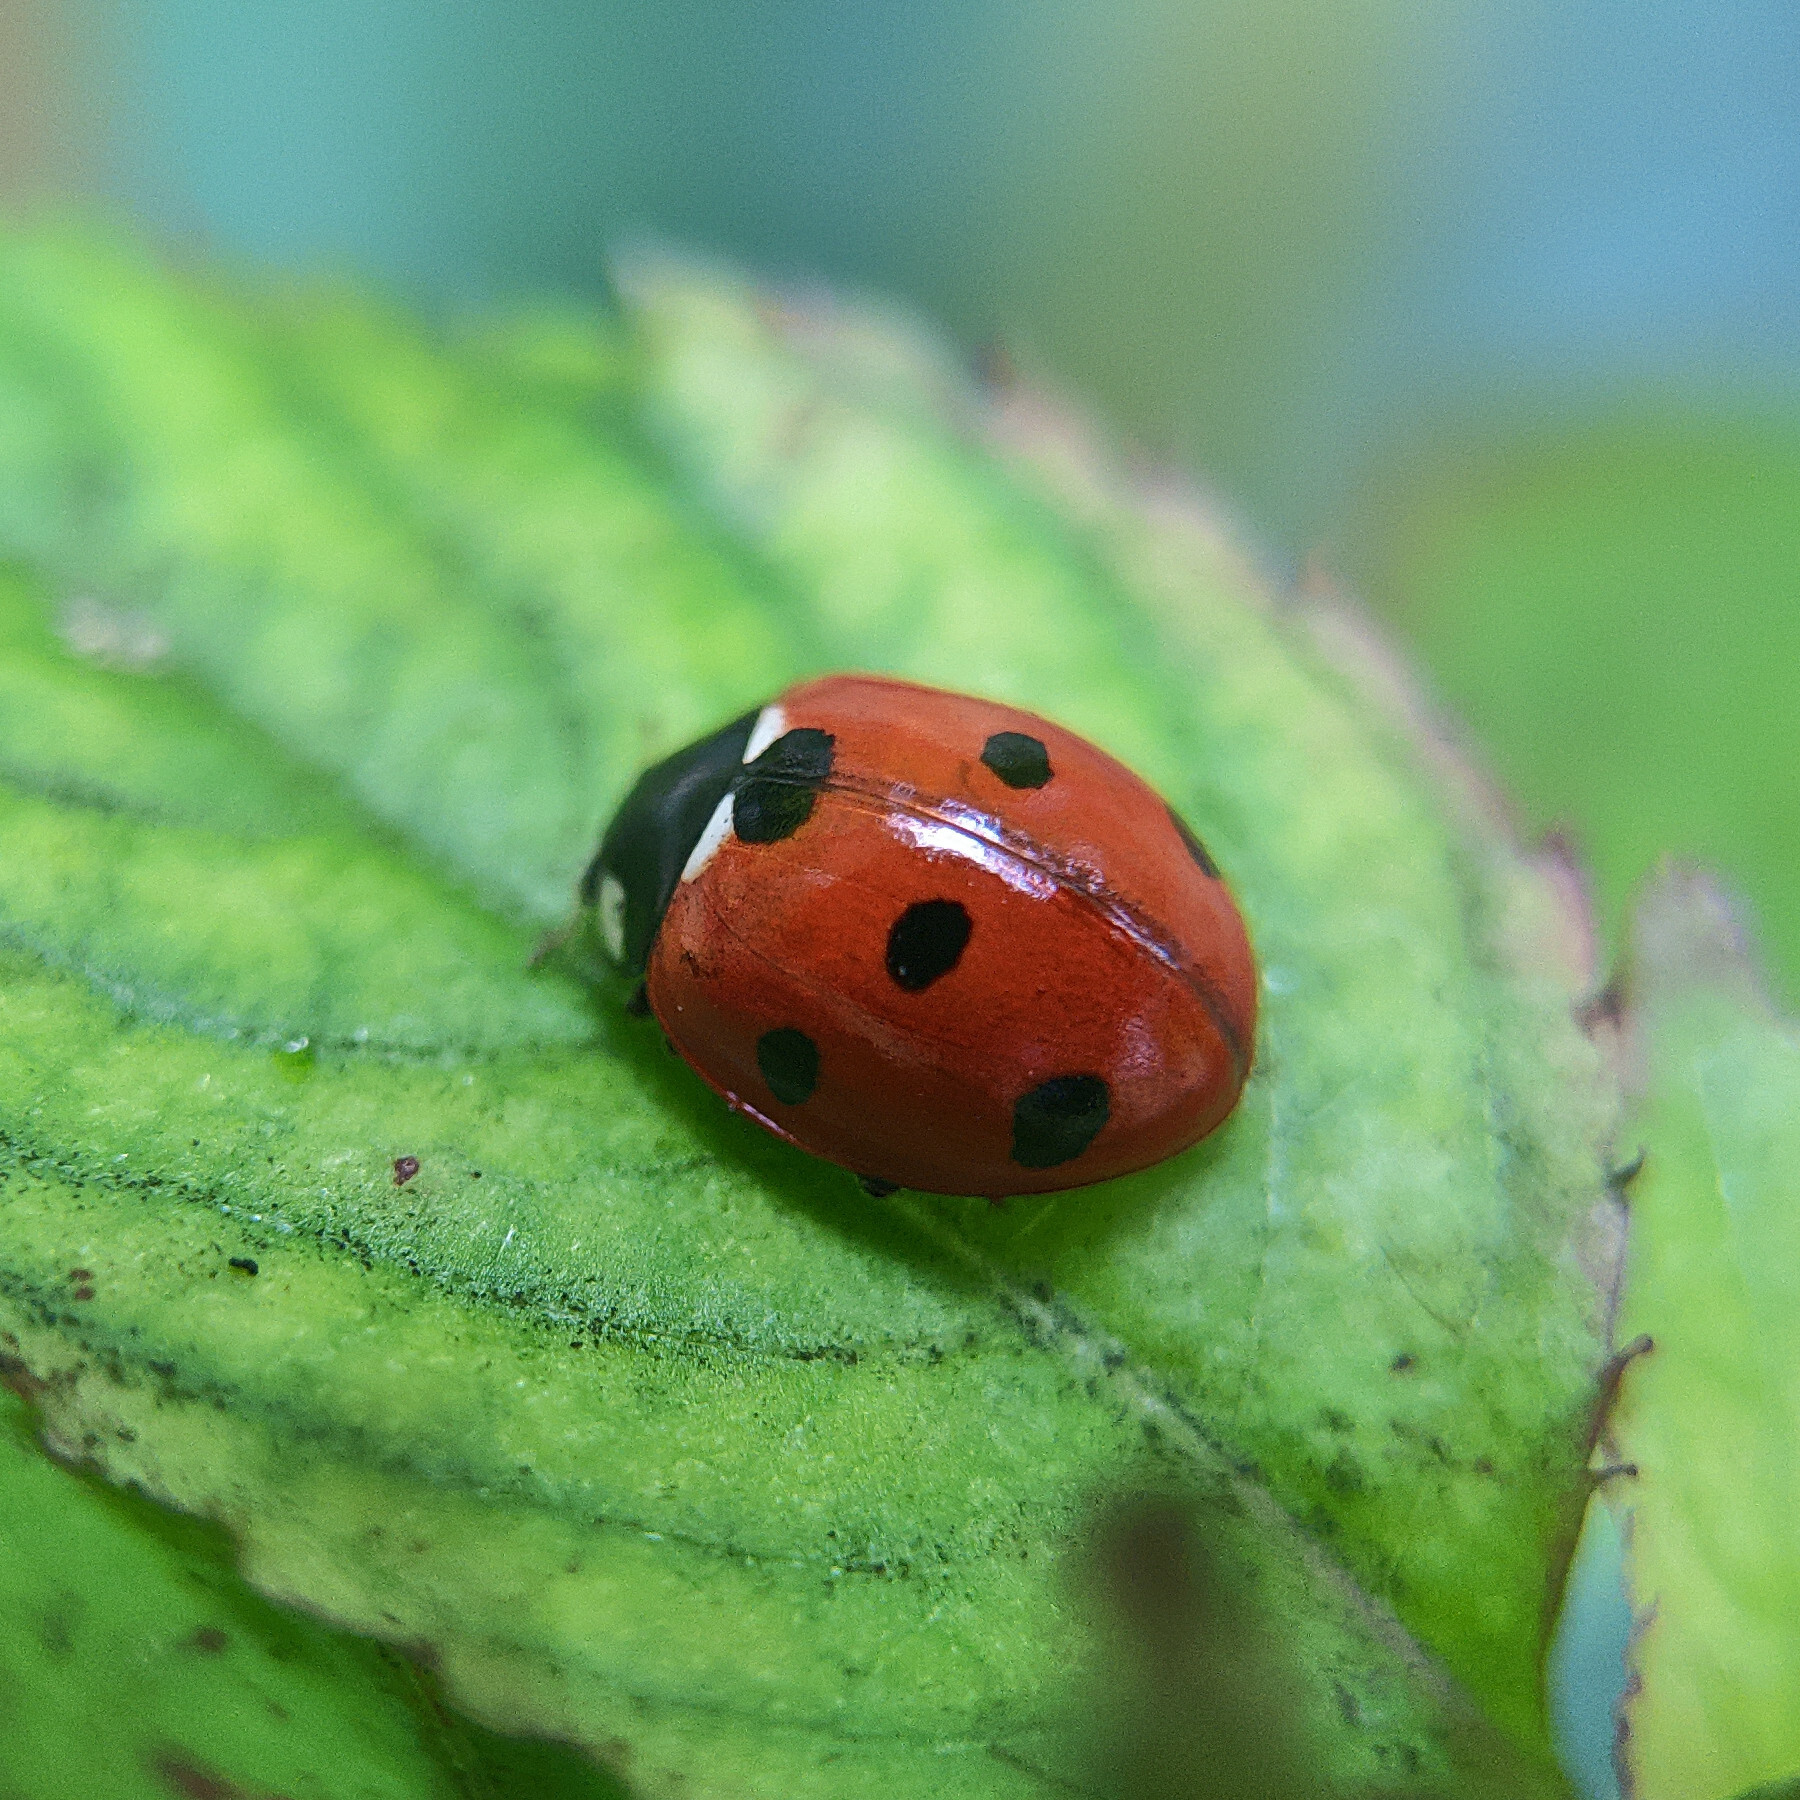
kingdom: Animalia
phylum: Arthropoda
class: Insecta
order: Coleoptera
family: Coccinellidae
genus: Coccinella
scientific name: Coccinella septempunctata
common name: Sevenspotted lady beetle
